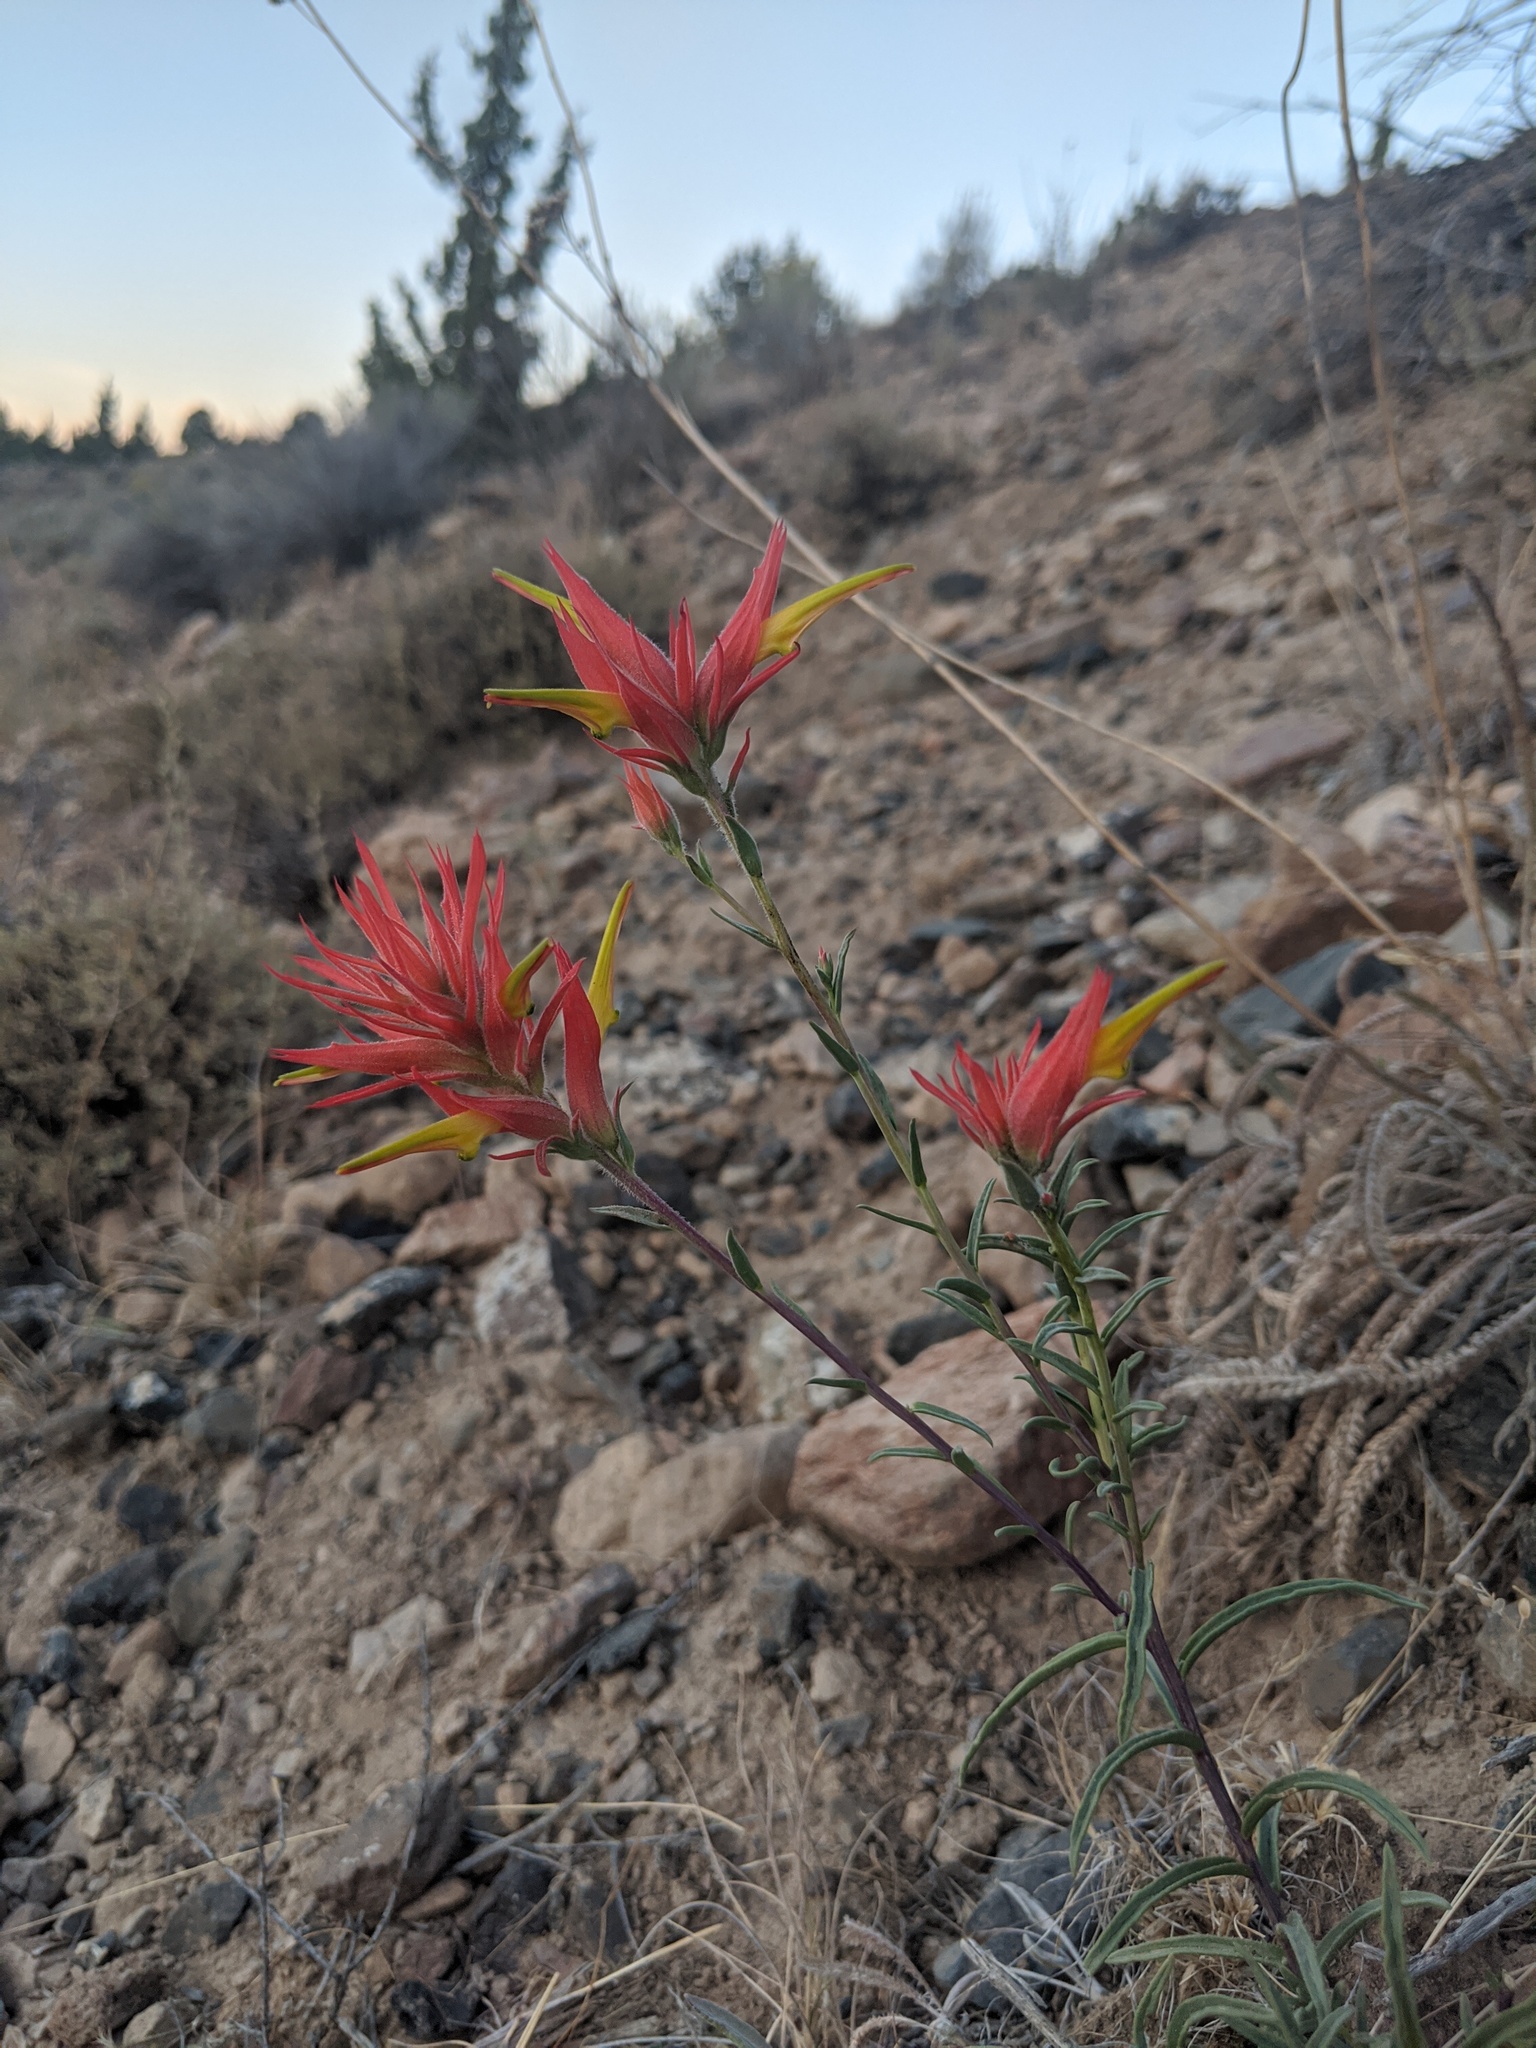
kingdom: Plantae
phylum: Tracheophyta
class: Magnoliopsida
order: Lamiales
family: Orobanchaceae
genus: Castilleja
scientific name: Castilleja linariifolia
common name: Wyoming paintbrush
